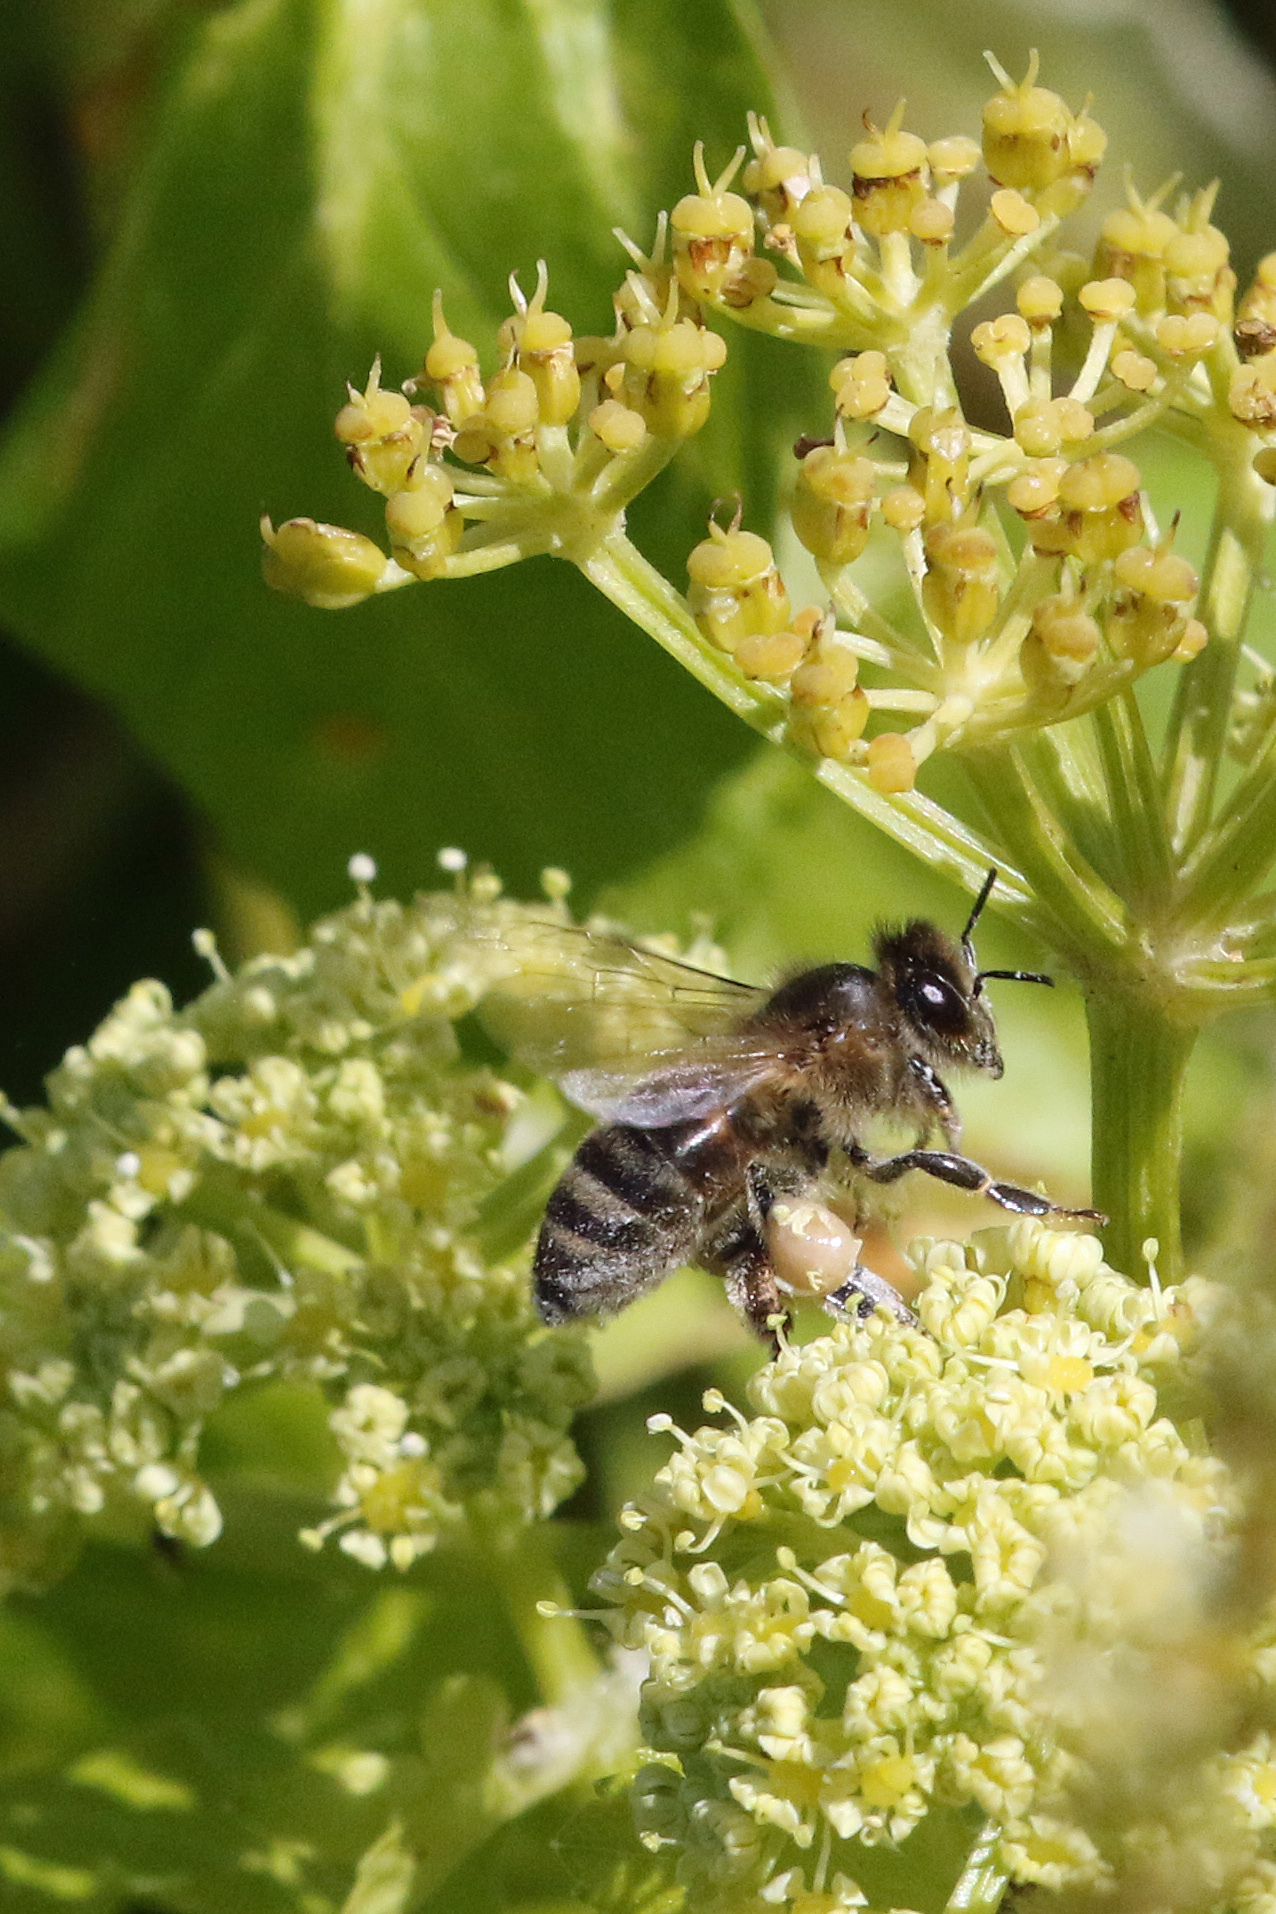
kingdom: Plantae
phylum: Tracheophyta
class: Magnoliopsida
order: Apiales
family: Apiaceae
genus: Smyrnium
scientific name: Smyrnium olusatrum
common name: Alexanders
